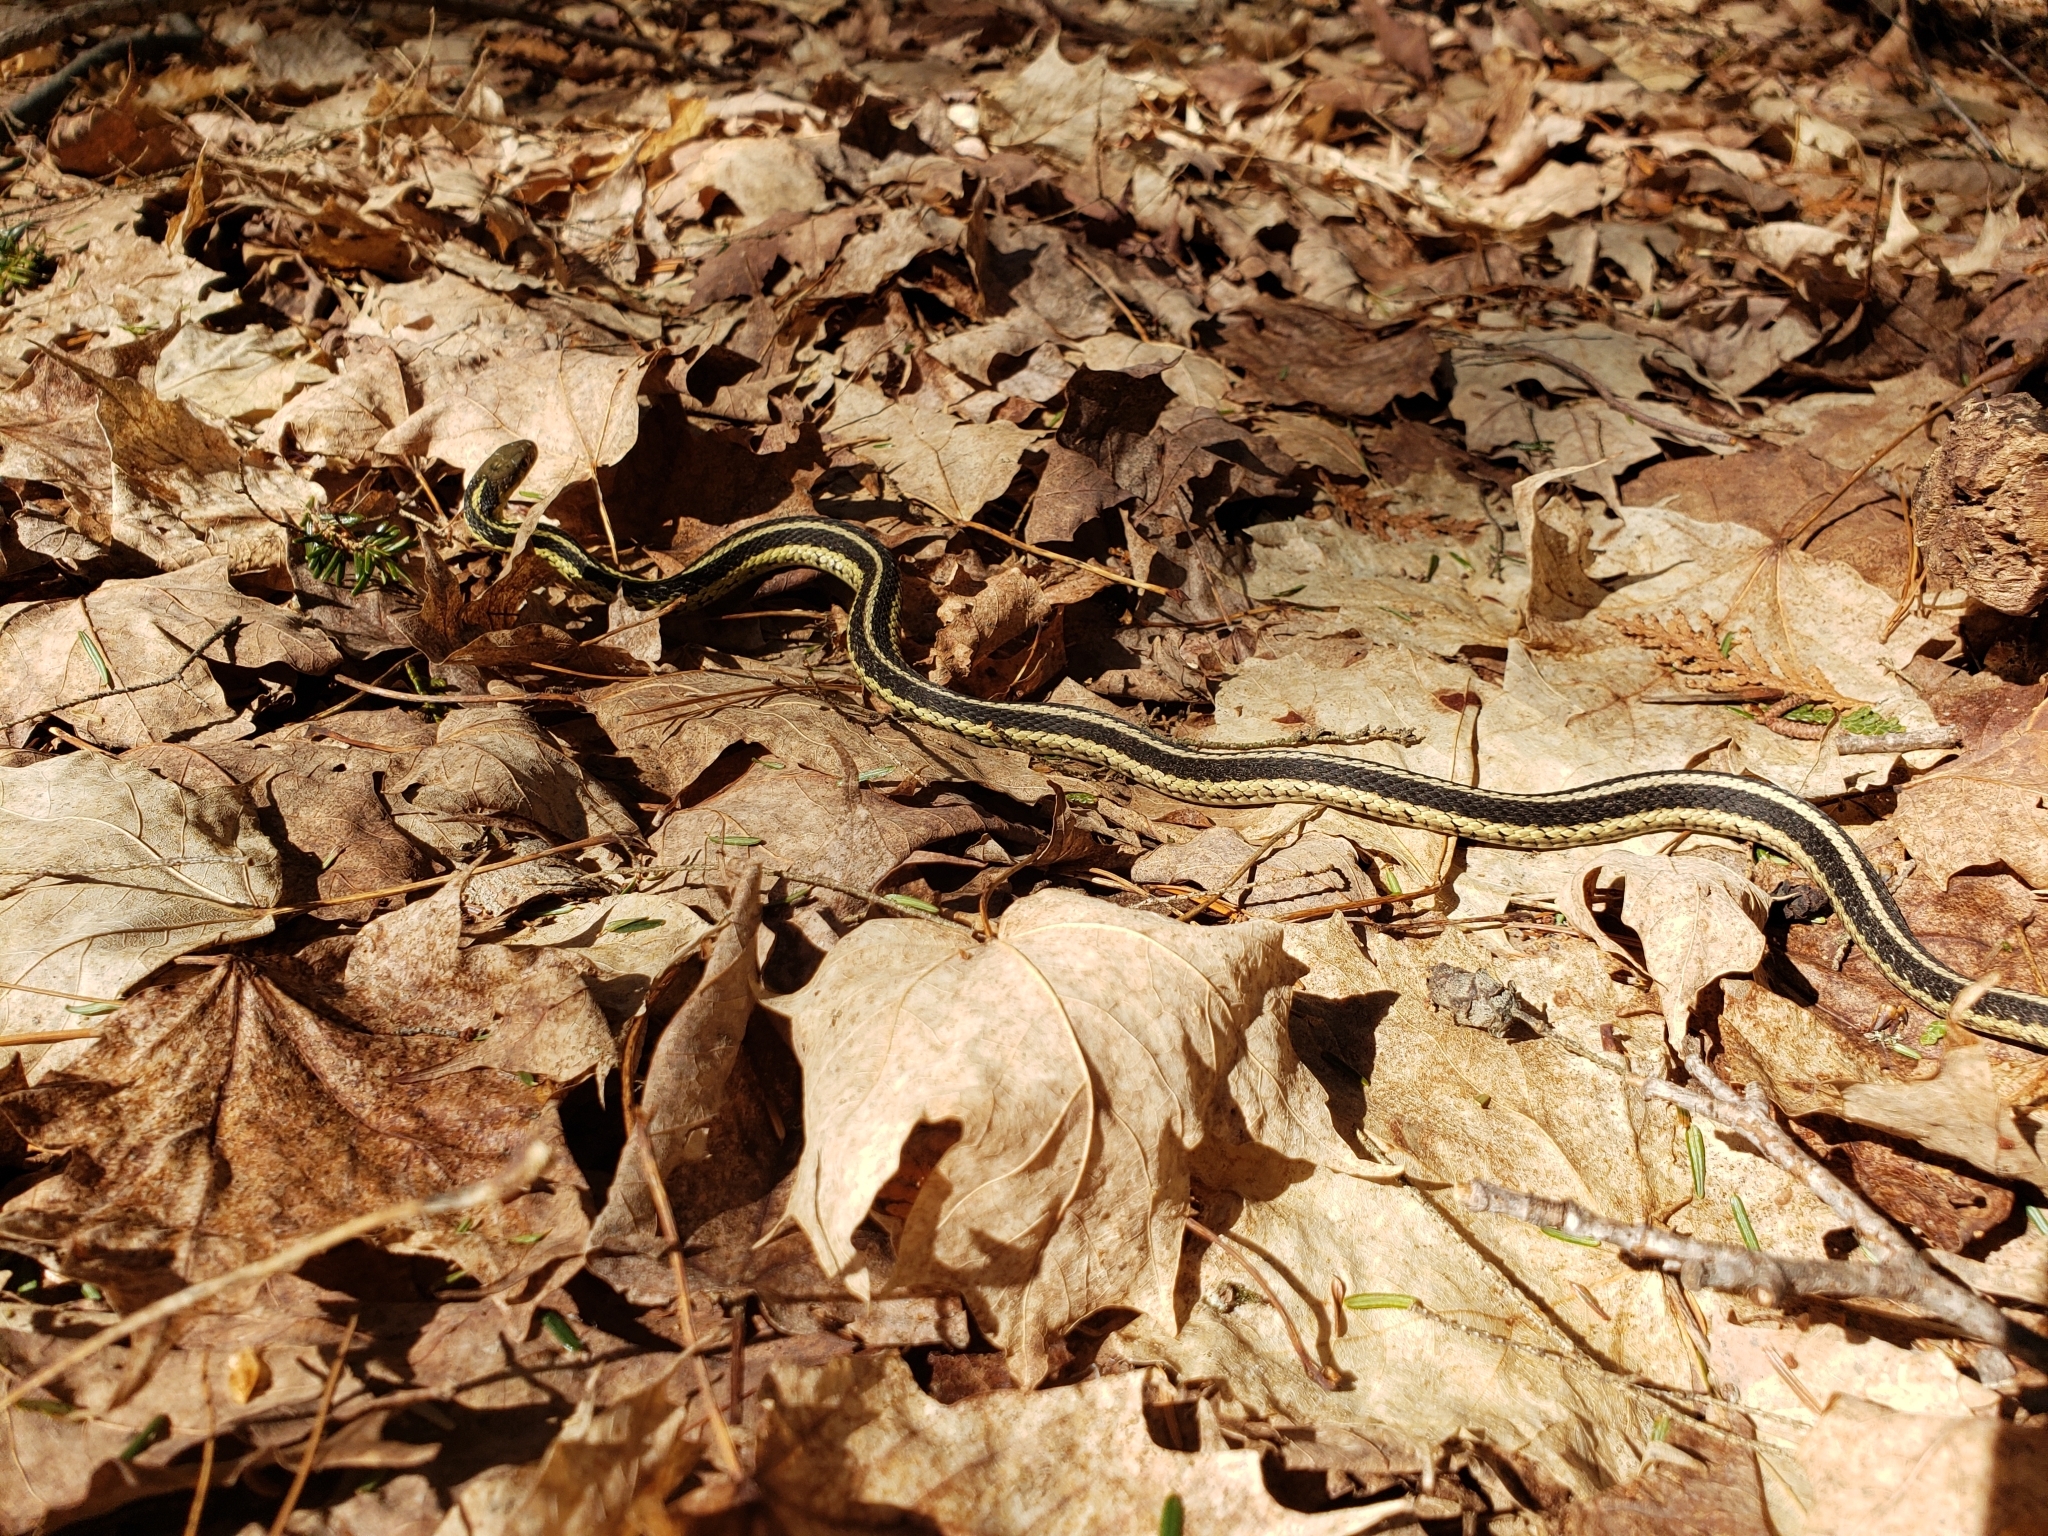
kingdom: Animalia
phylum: Chordata
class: Squamata
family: Colubridae
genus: Thamnophis
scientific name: Thamnophis sirtalis
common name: Common garter snake
